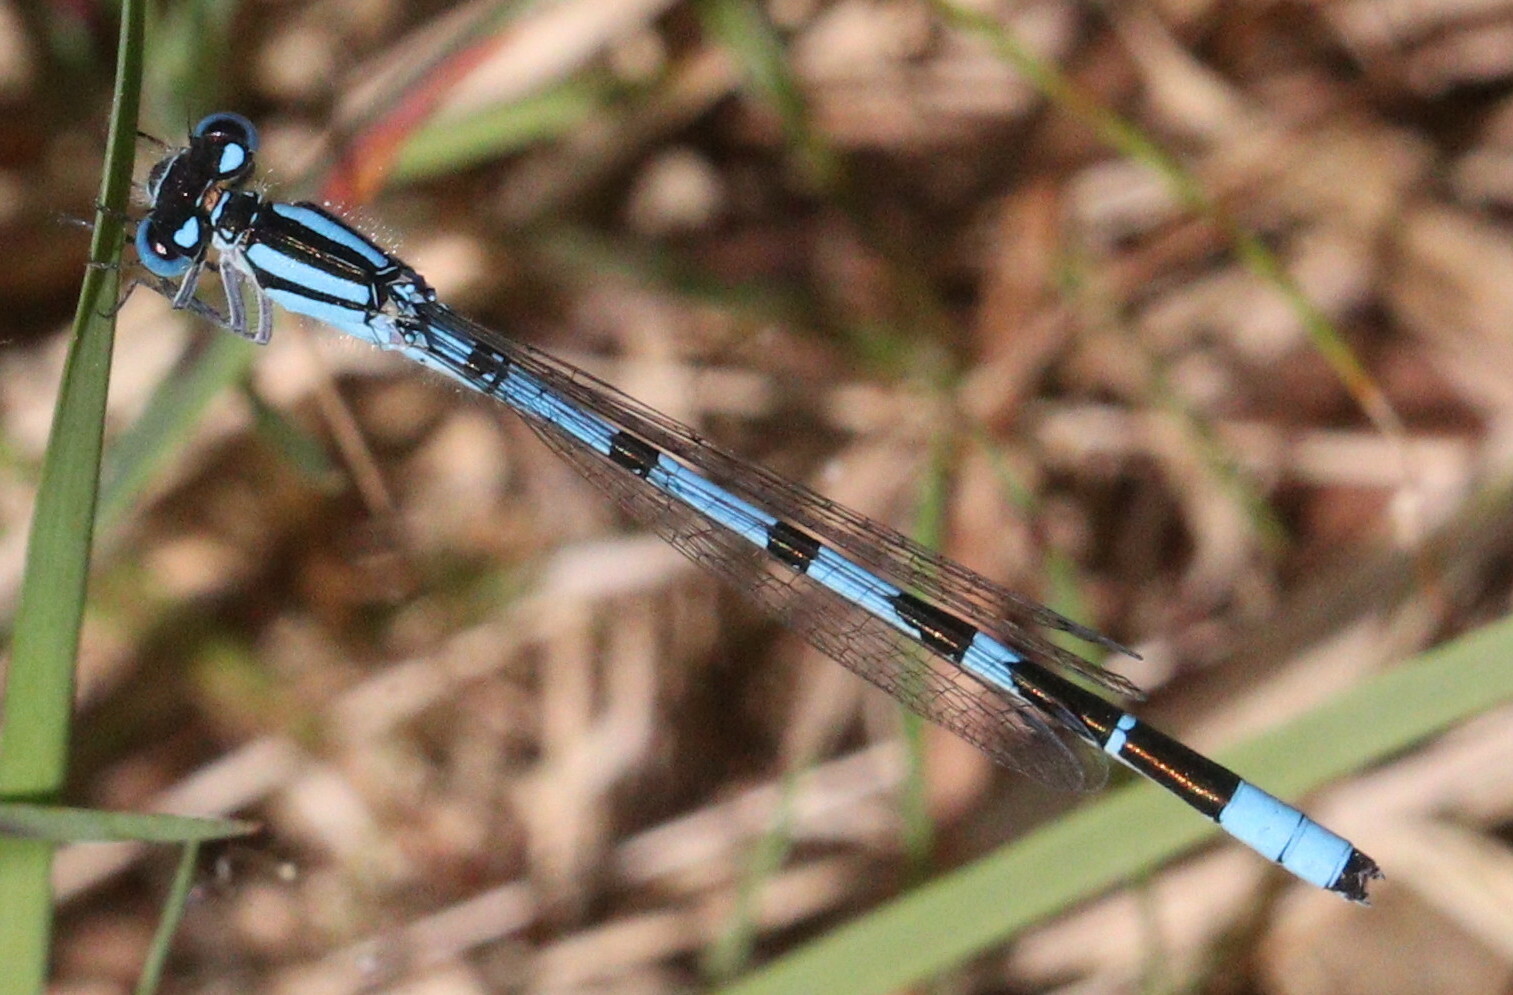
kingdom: Animalia
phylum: Arthropoda
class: Insecta
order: Odonata
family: Coenagrionidae
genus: Enallagma
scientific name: Enallagma cyathigerum
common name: Common blue damselfly
